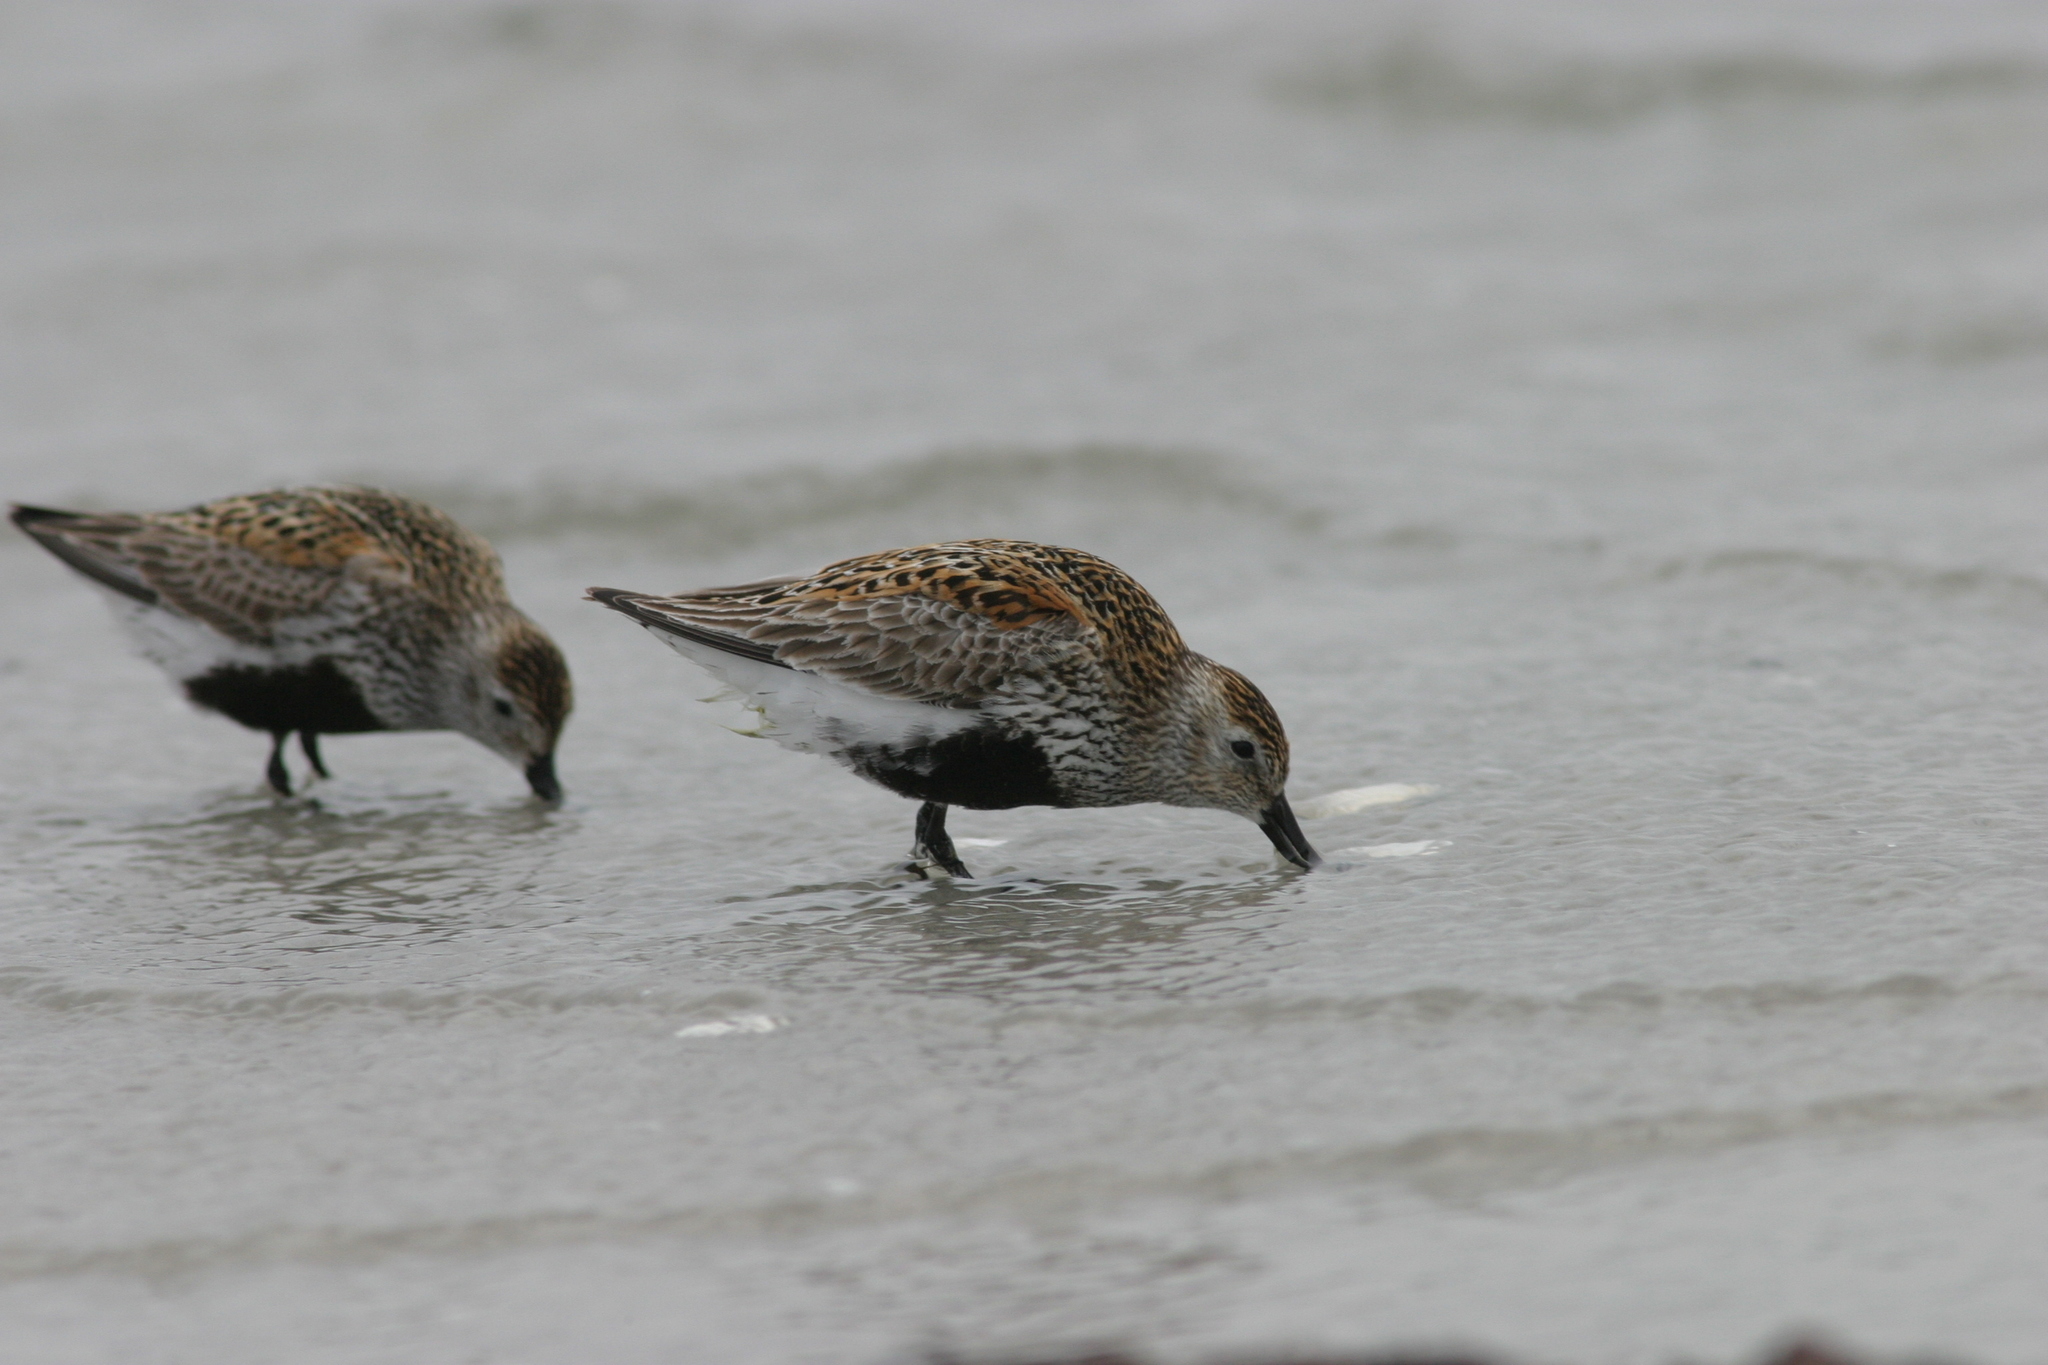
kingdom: Animalia
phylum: Chordata
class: Aves
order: Charadriiformes
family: Scolopacidae
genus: Calidris
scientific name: Calidris alpina
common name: Dunlin
